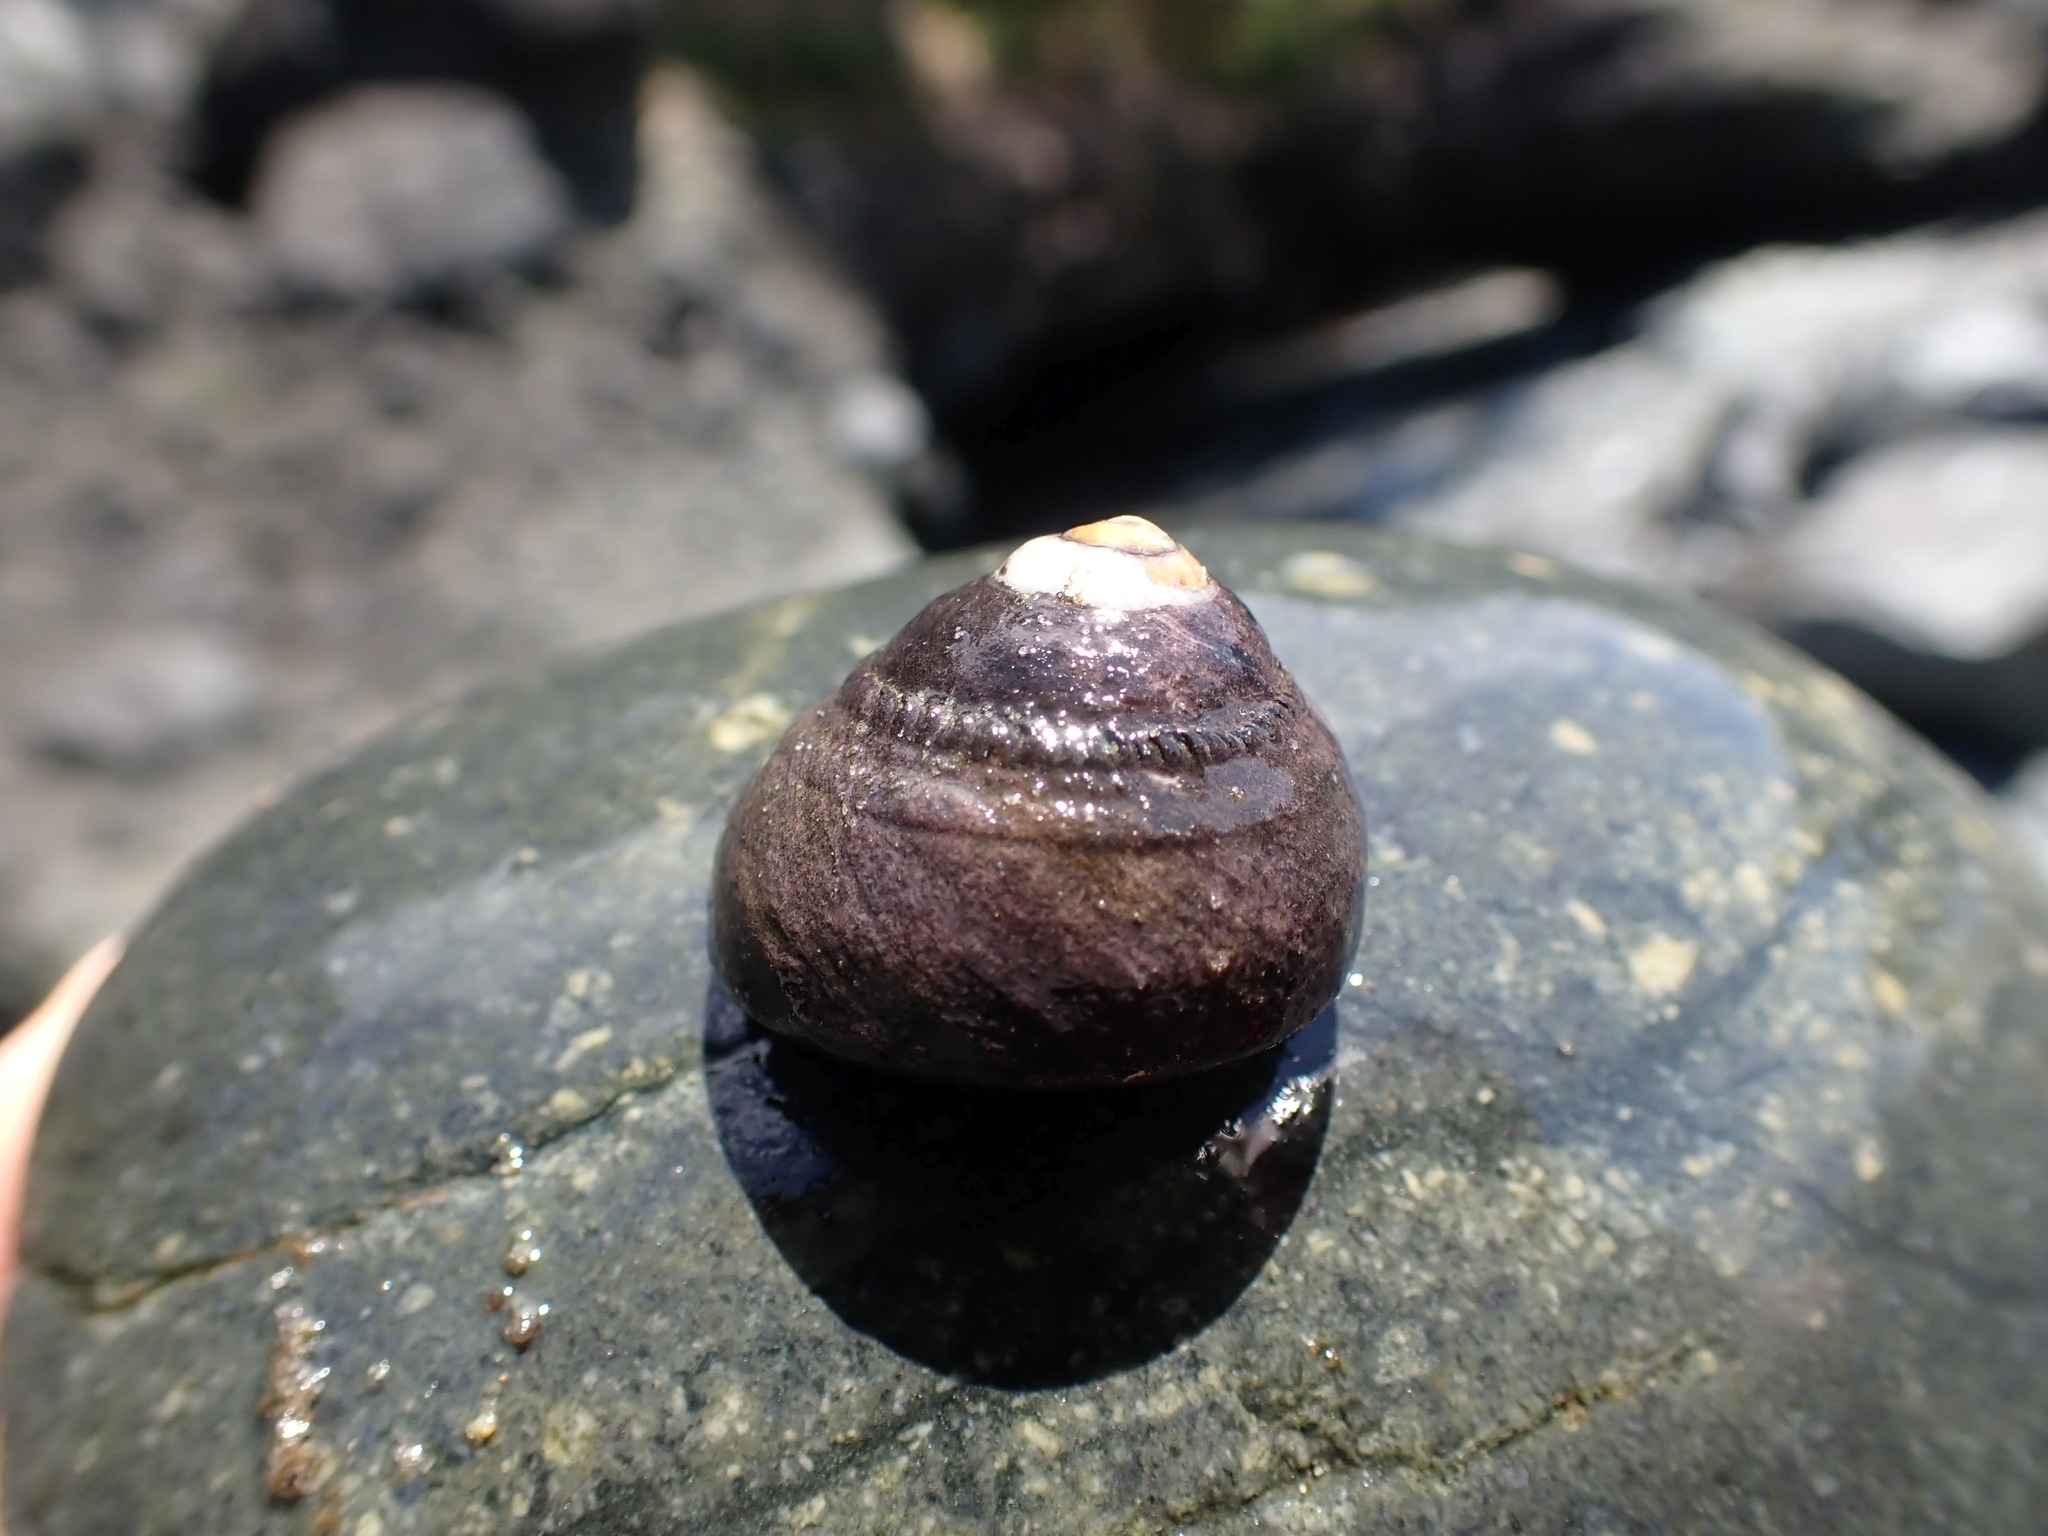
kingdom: Animalia
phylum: Mollusca
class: Gastropoda
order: Trochida
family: Tegulidae
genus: Tegula
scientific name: Tegula funebralis
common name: Black tegula
